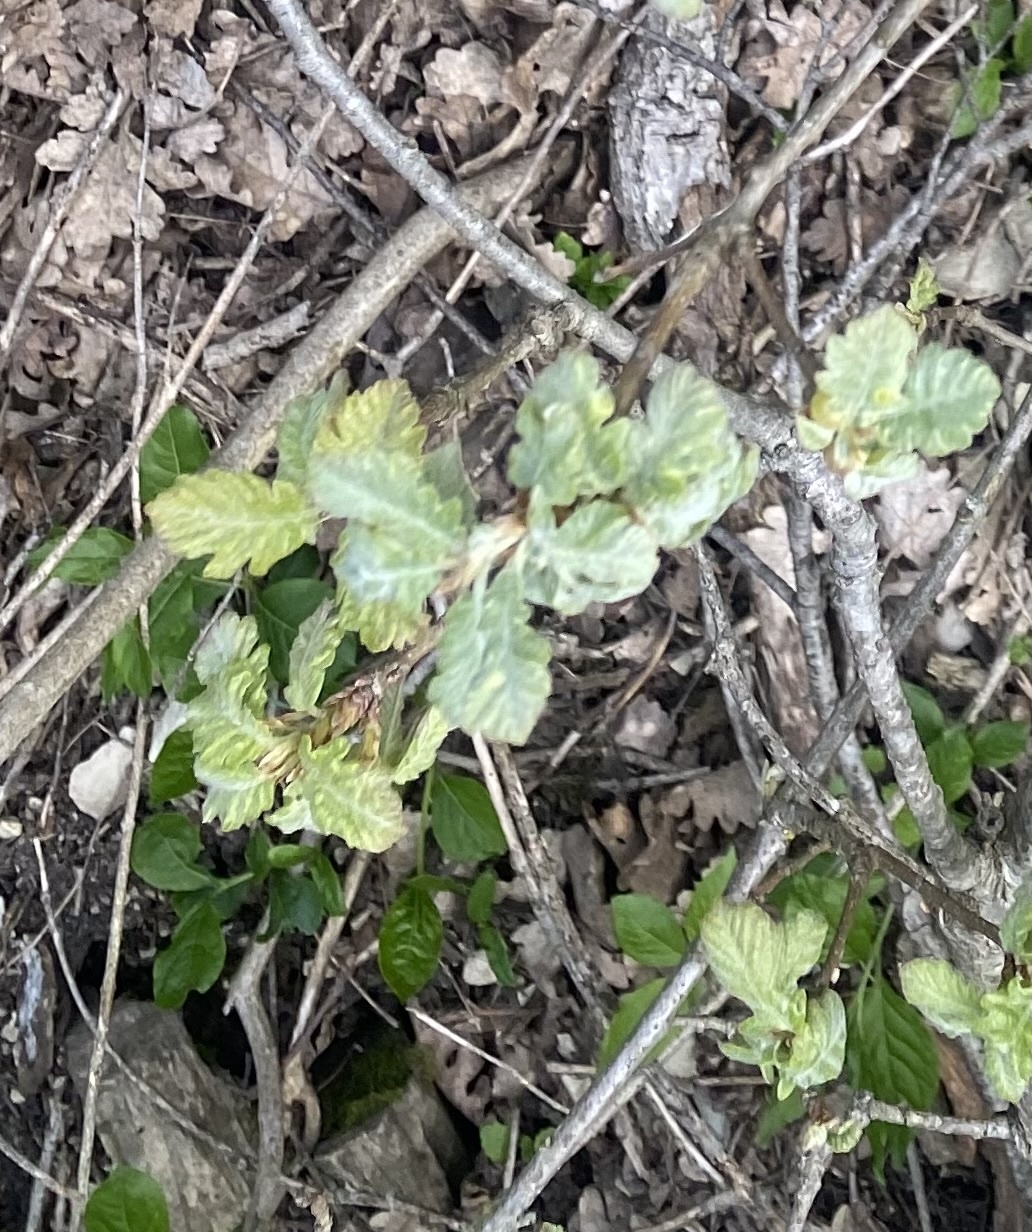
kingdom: Plantae
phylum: Tracheophyta
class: Magnoliopsida
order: Fagales
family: Fagaceae
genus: Quercus
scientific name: Quercus pubescens
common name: Downy oak
